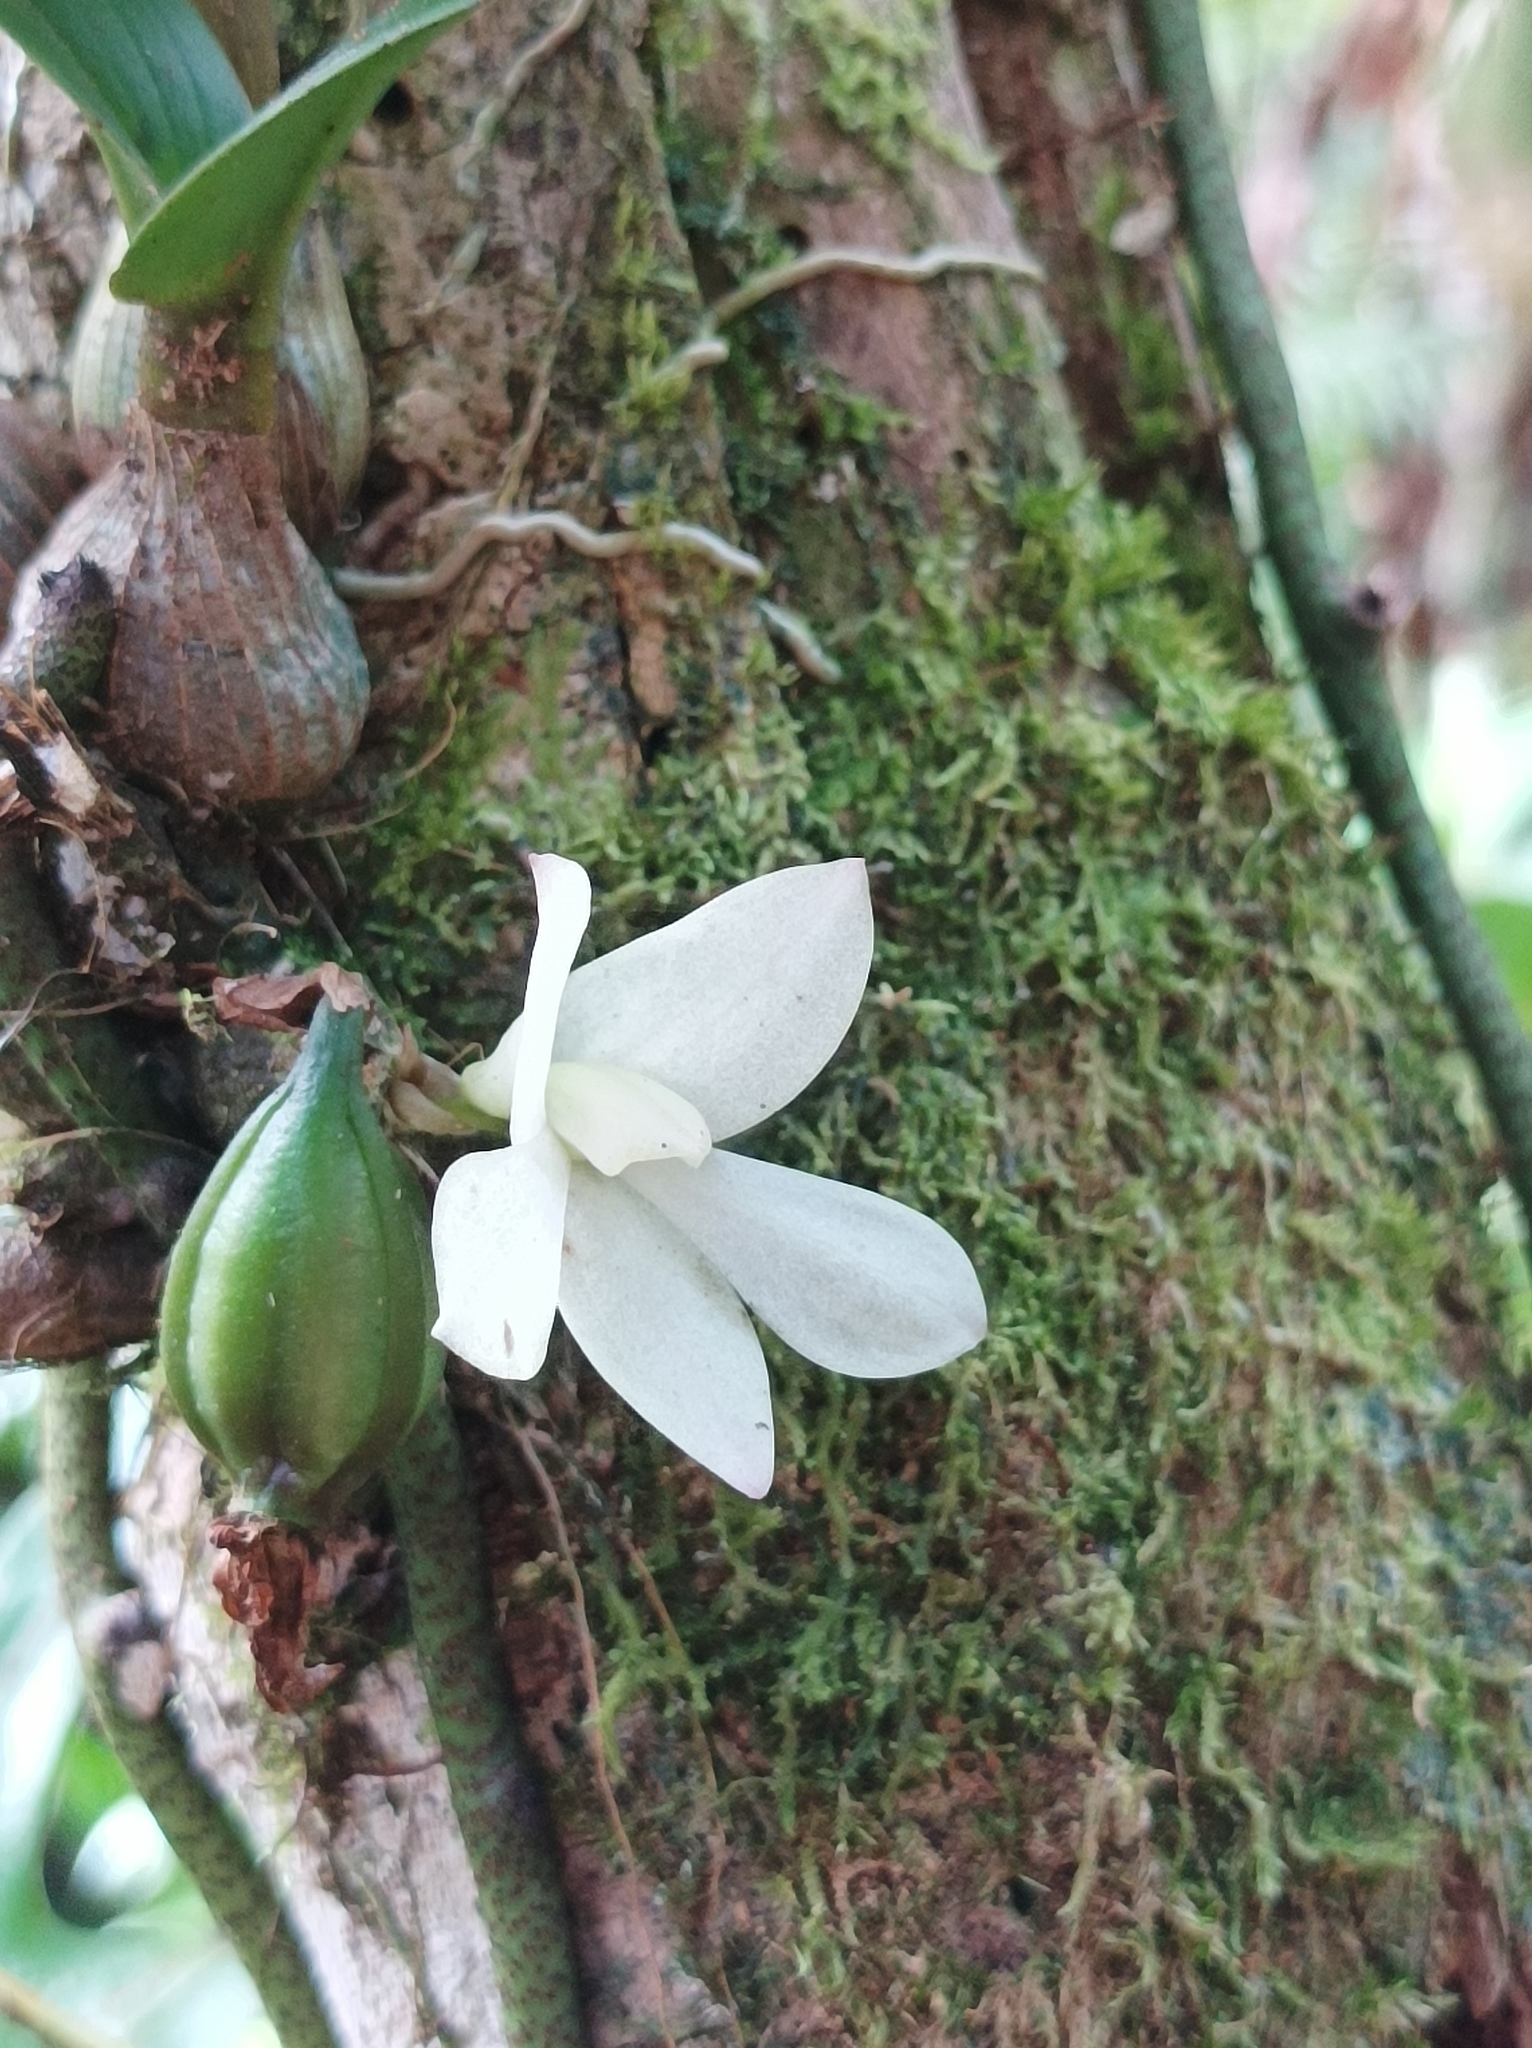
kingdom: Plantae
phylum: Tracheophyta
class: Liliopsida
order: Asparagales
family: Orchidaceae
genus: Dendrobium
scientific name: Dendrobium prasinum
